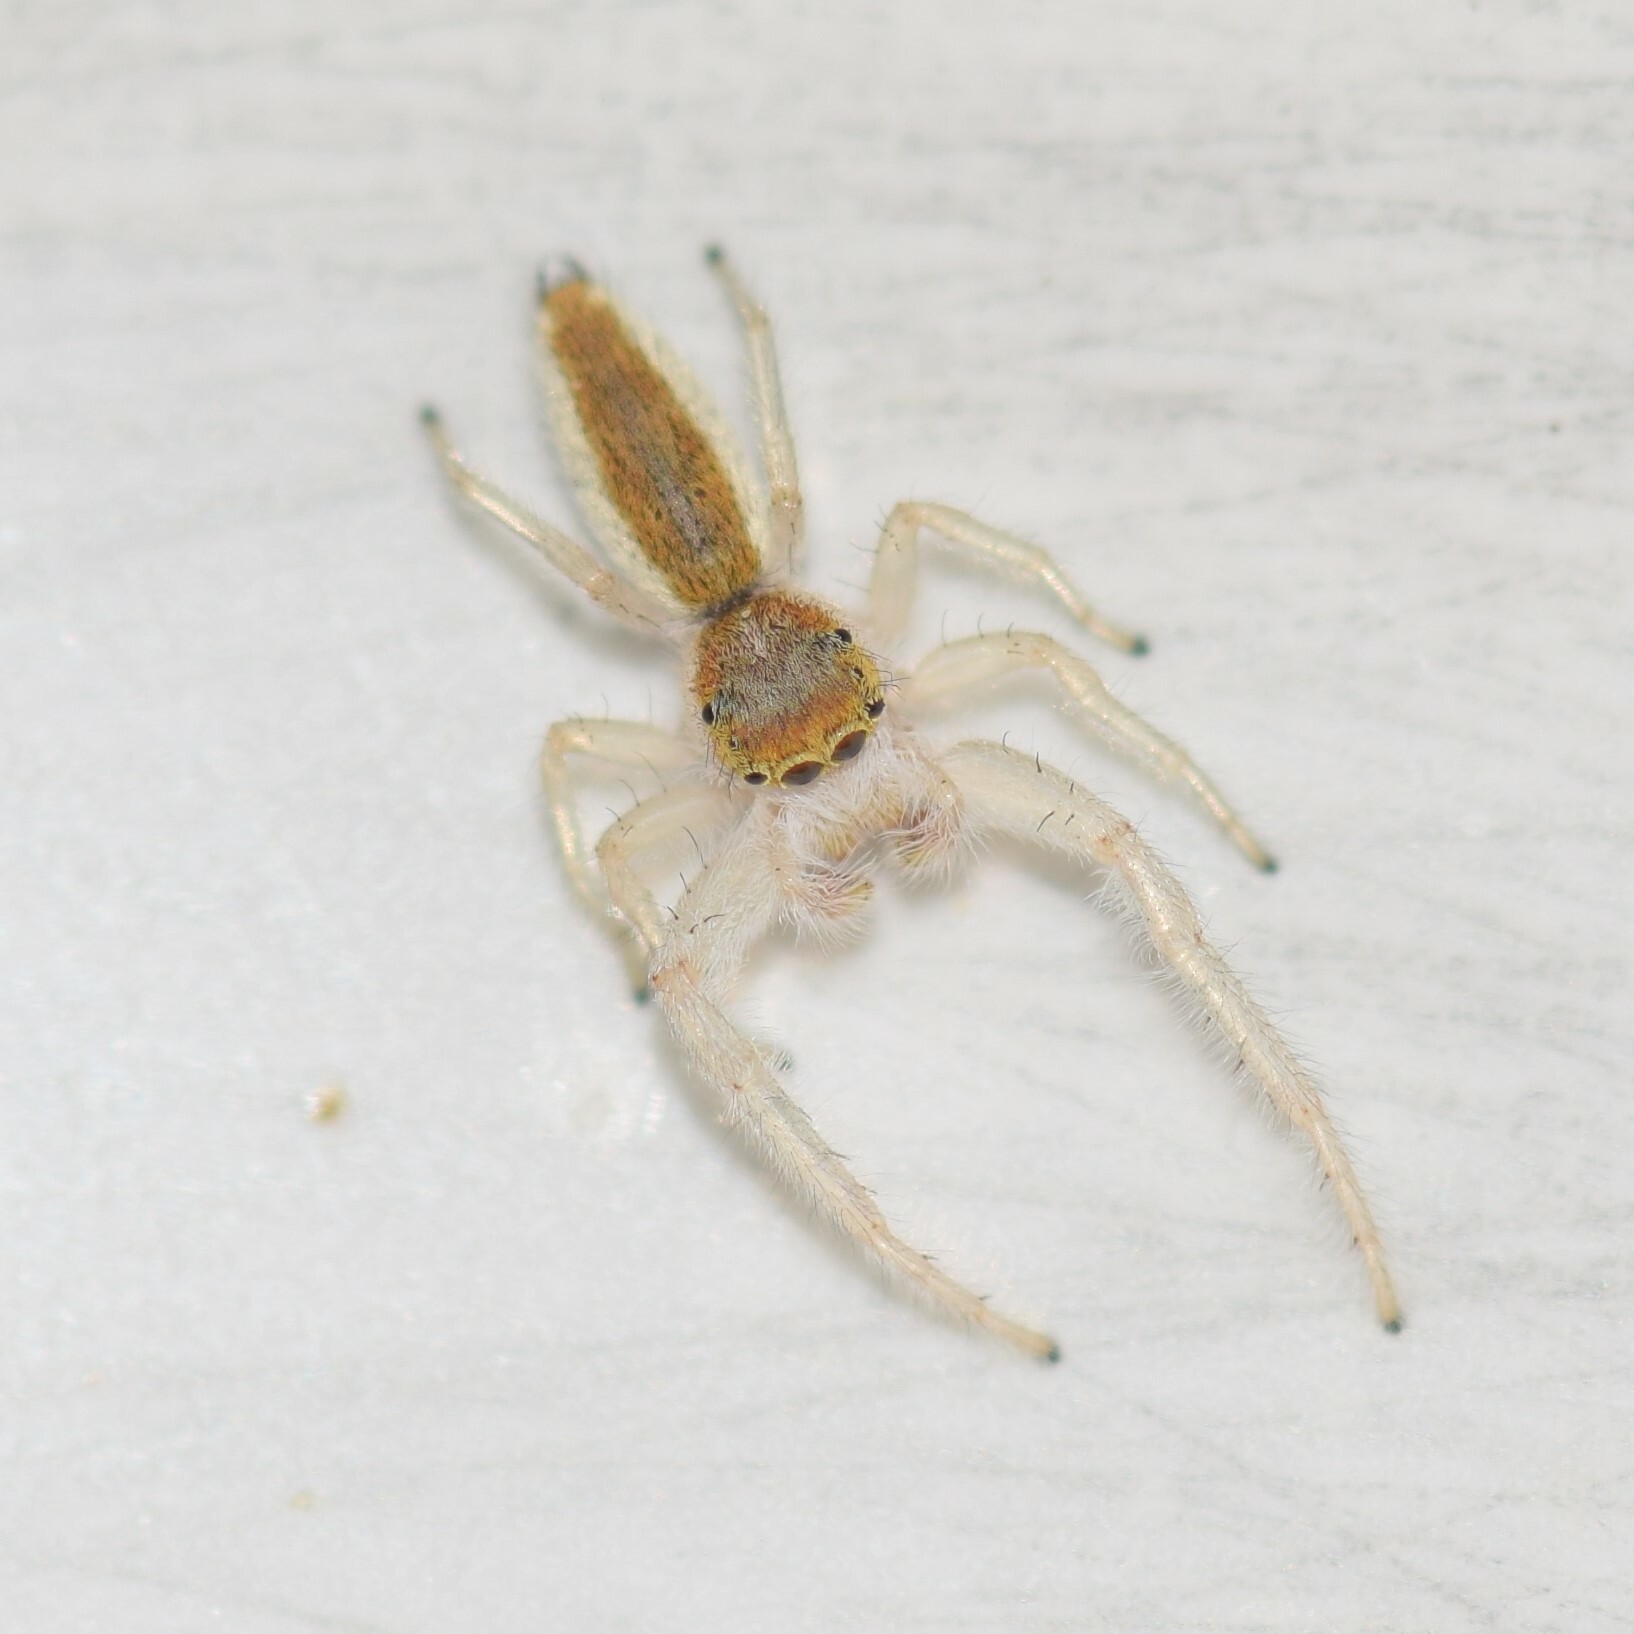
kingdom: Animalia
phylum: Arthropoda
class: Arachnida
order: Araneae
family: Salticidae
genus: Hentzia
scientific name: Hentzia mitrata
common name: White-jawed jumping spider
